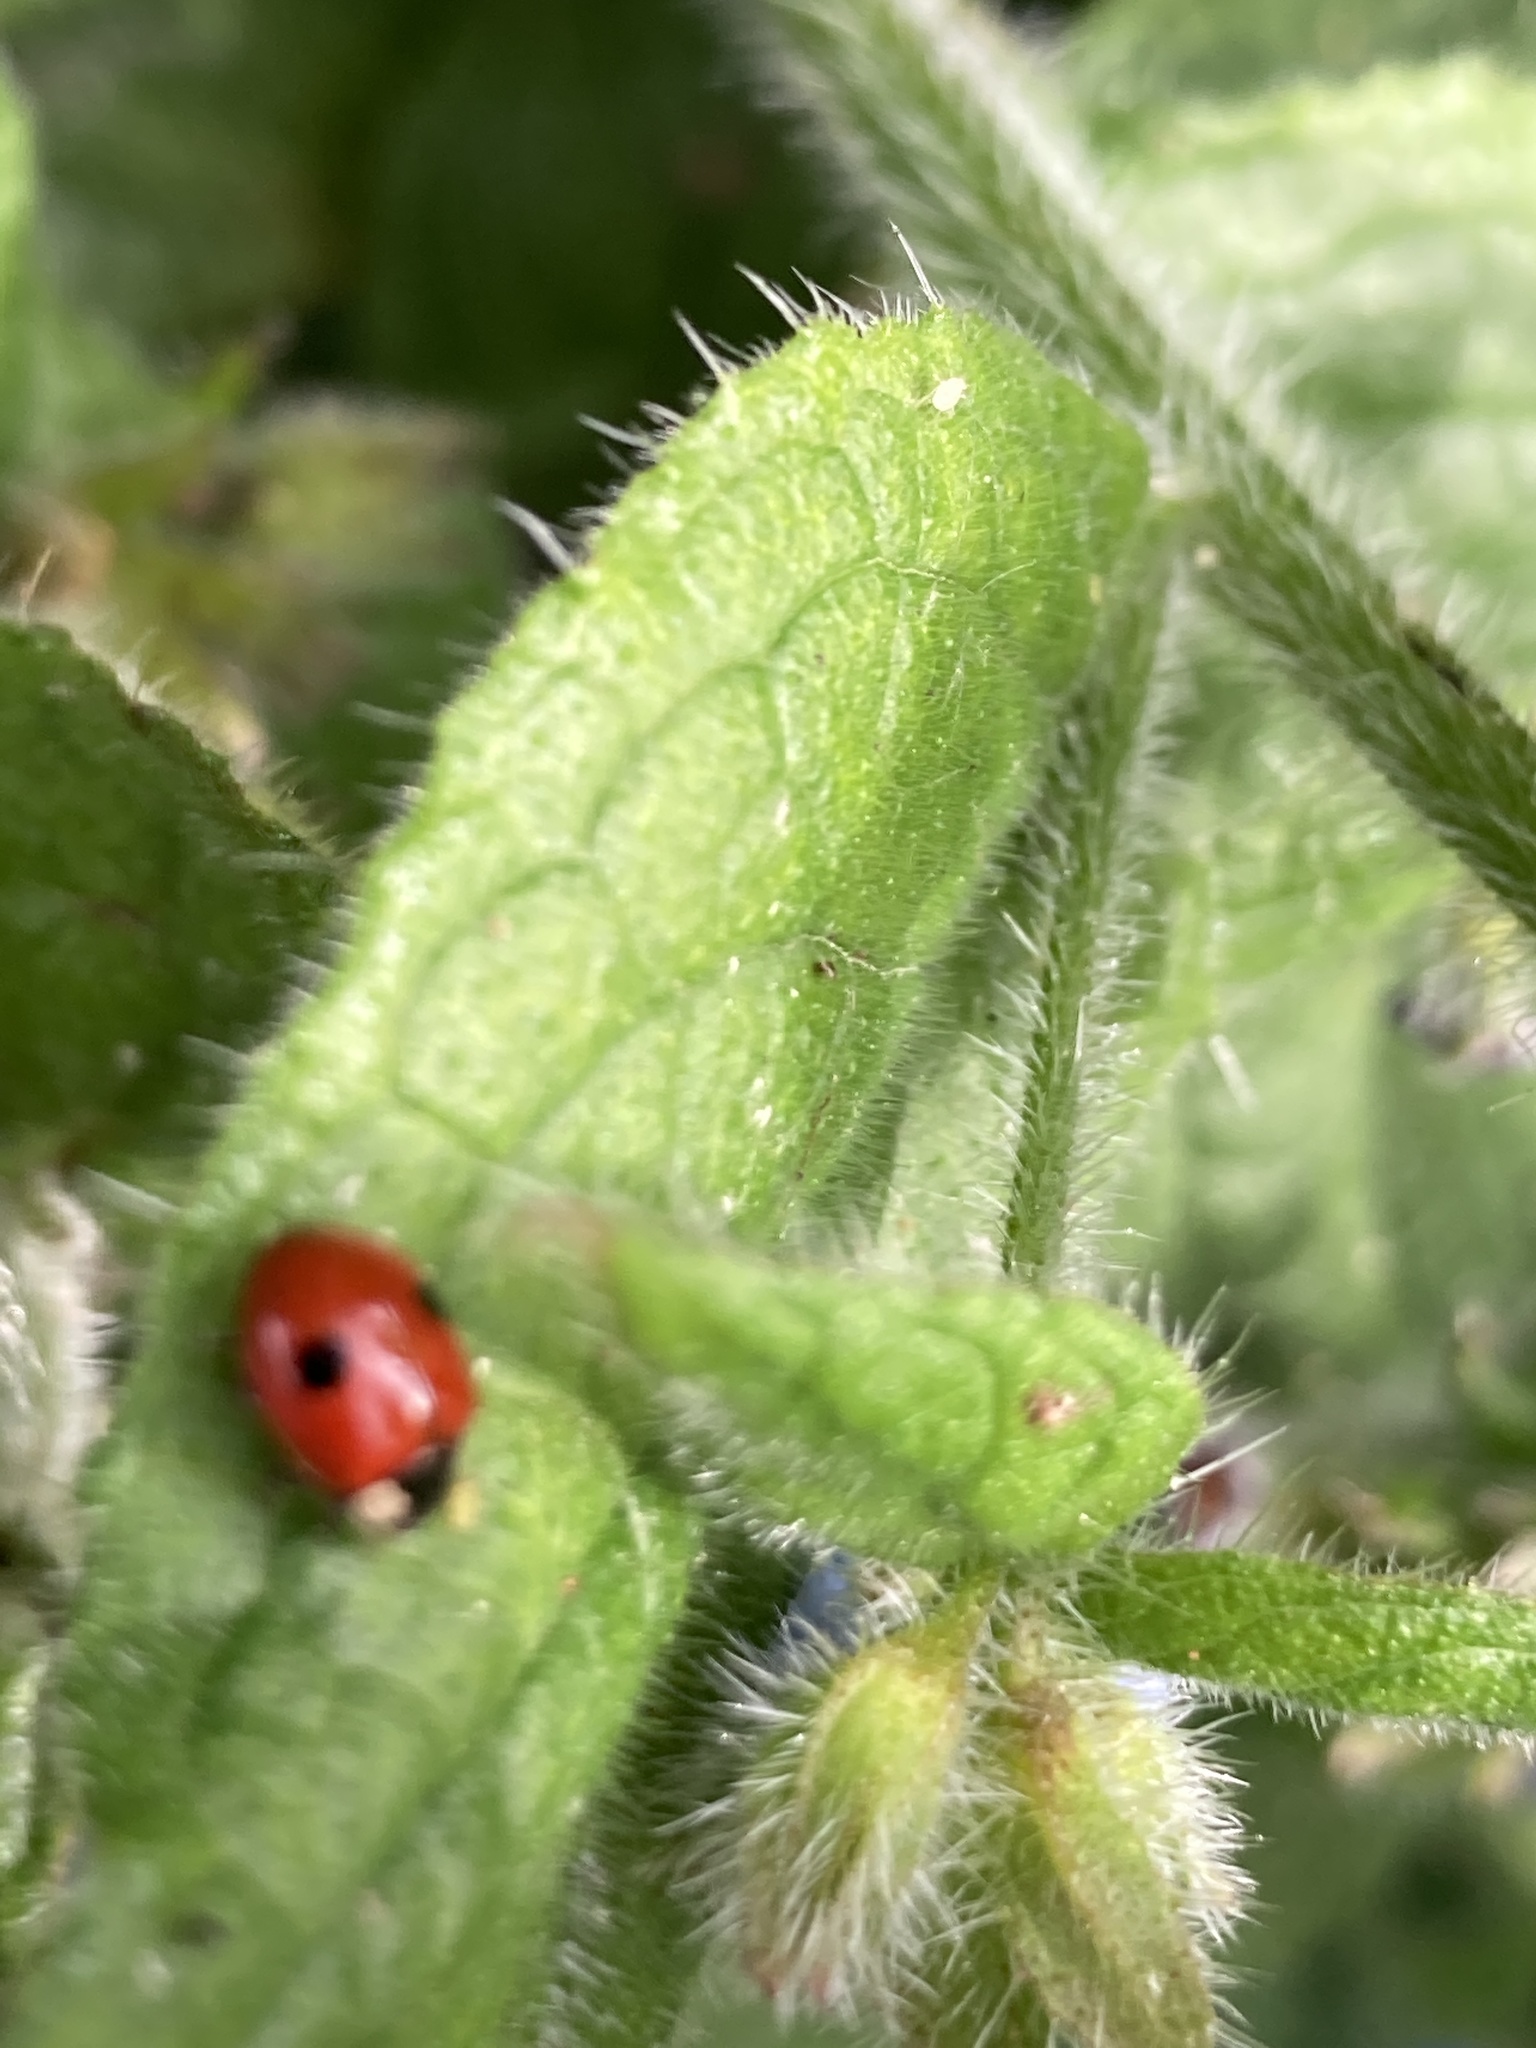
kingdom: Animalia
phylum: Arthropoda
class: Insecta
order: Coleoptera
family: Coccinellidae
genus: Adalia
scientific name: Adalia bipunctata
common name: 2-spot ladybird
